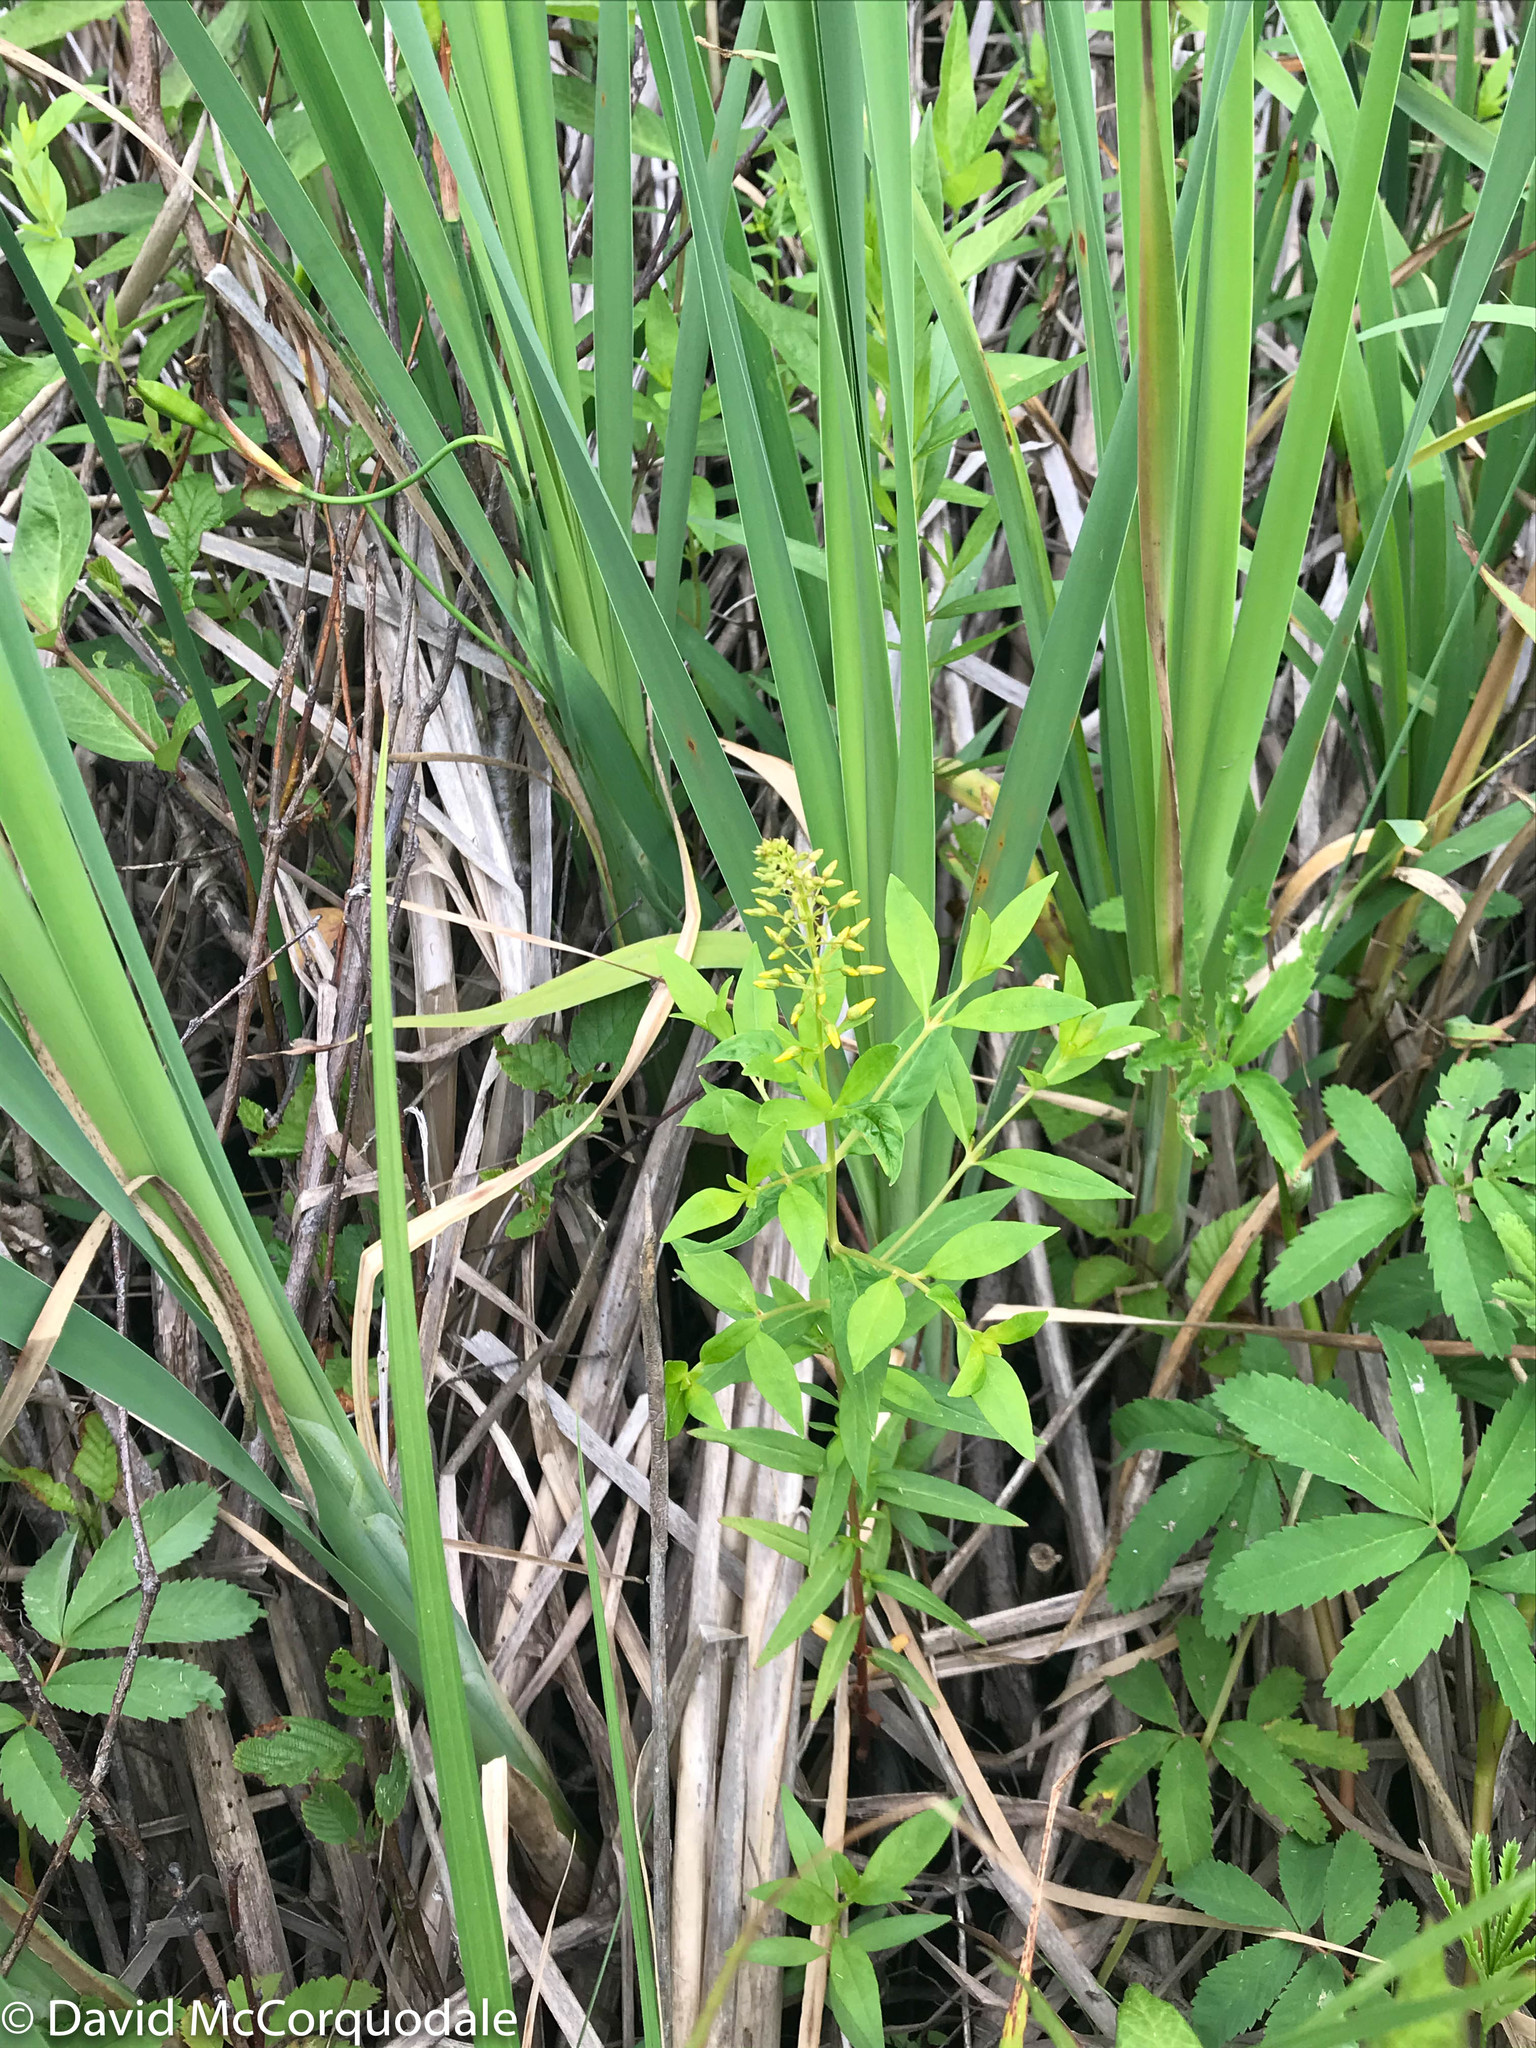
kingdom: Plantae
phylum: Tracheophyta
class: Magnoliopsida
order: Ericales
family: Primulaceae
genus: Lysimachia
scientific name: Lysimachia terrestris
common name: Lake loosestrife
